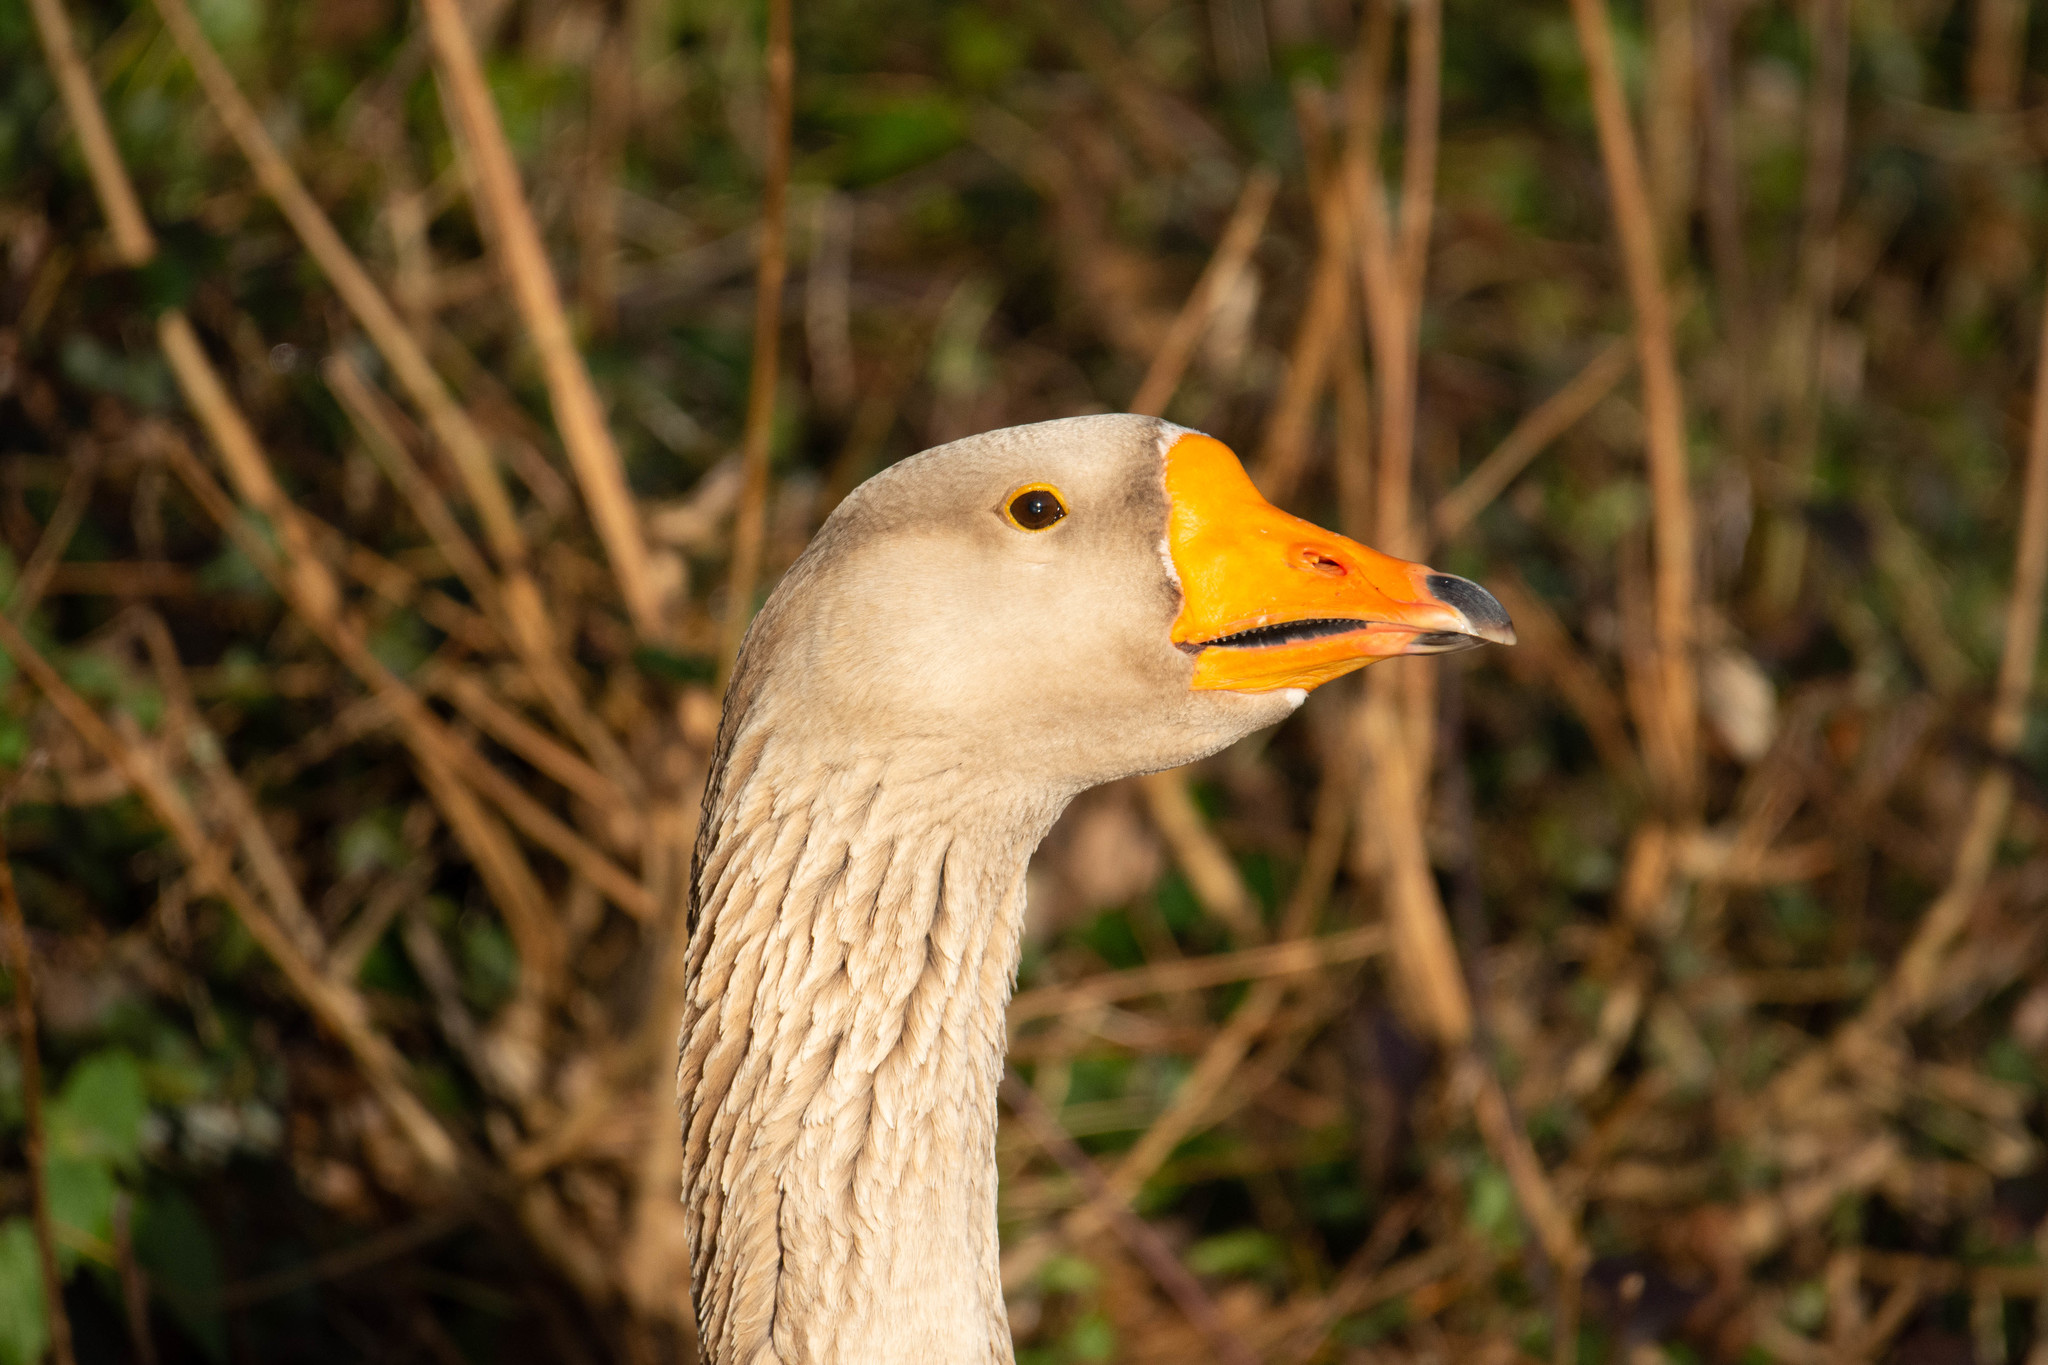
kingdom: Animalia
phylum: Chordata
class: Aves
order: Anseriformes
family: Anatidae
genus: Anser
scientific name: Anser
